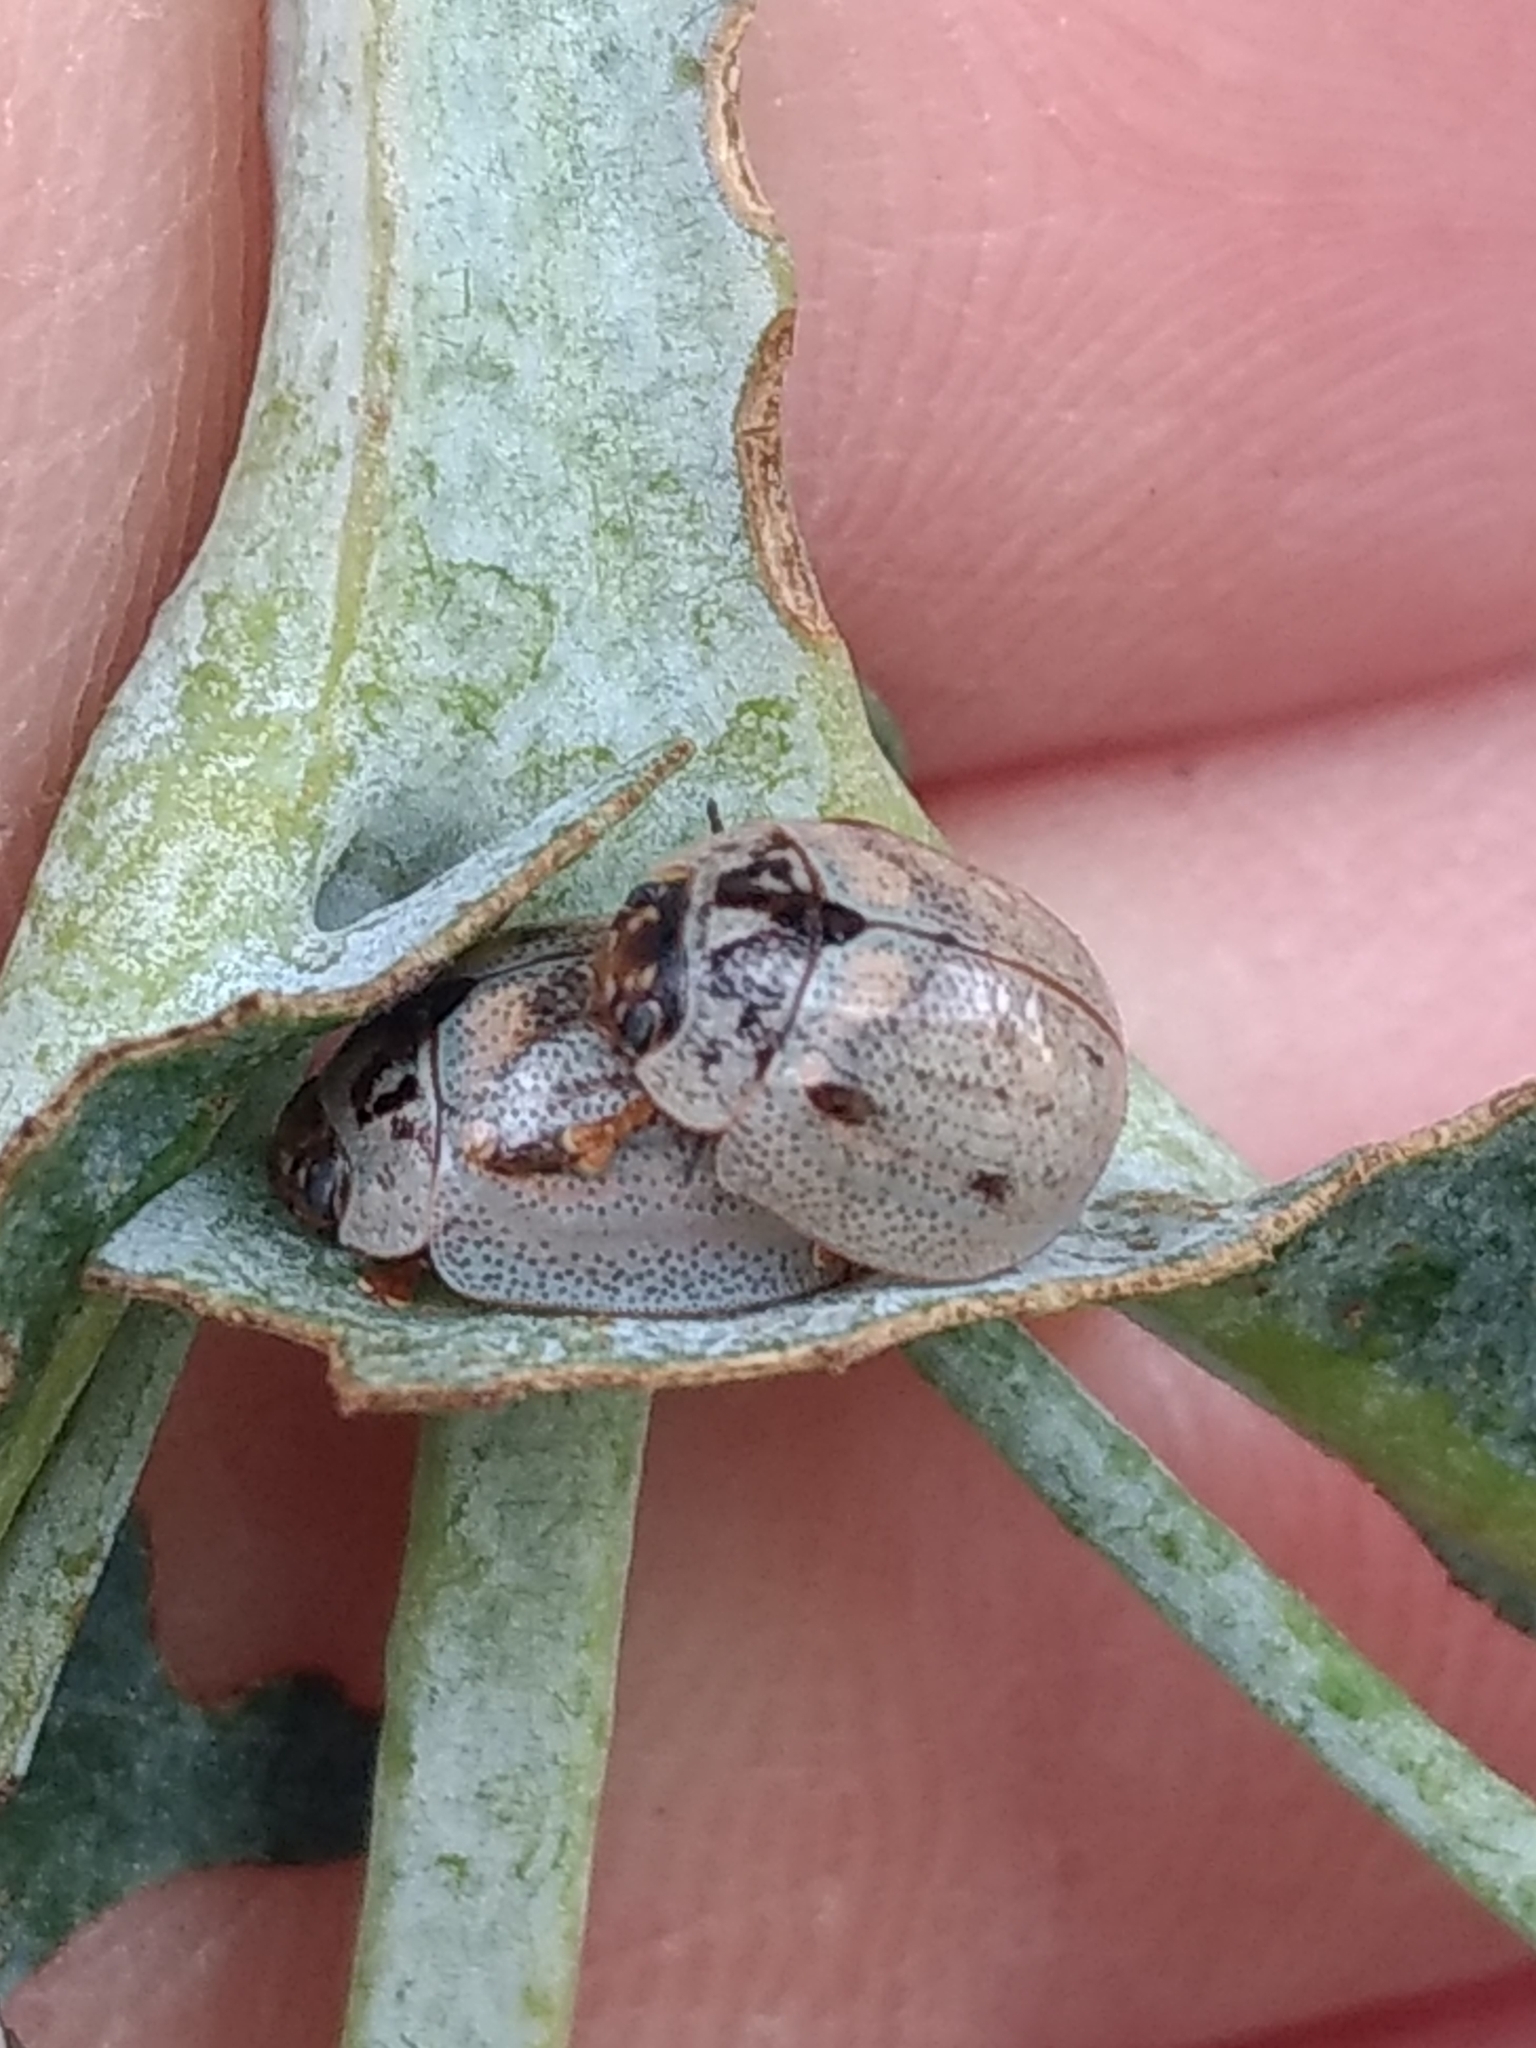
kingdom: Animalia
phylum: Arthropoda
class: Insecta
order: Coleoptera
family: Chrysomelidae
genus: Paropsisterna
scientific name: Paropsisterna m-fuscum
